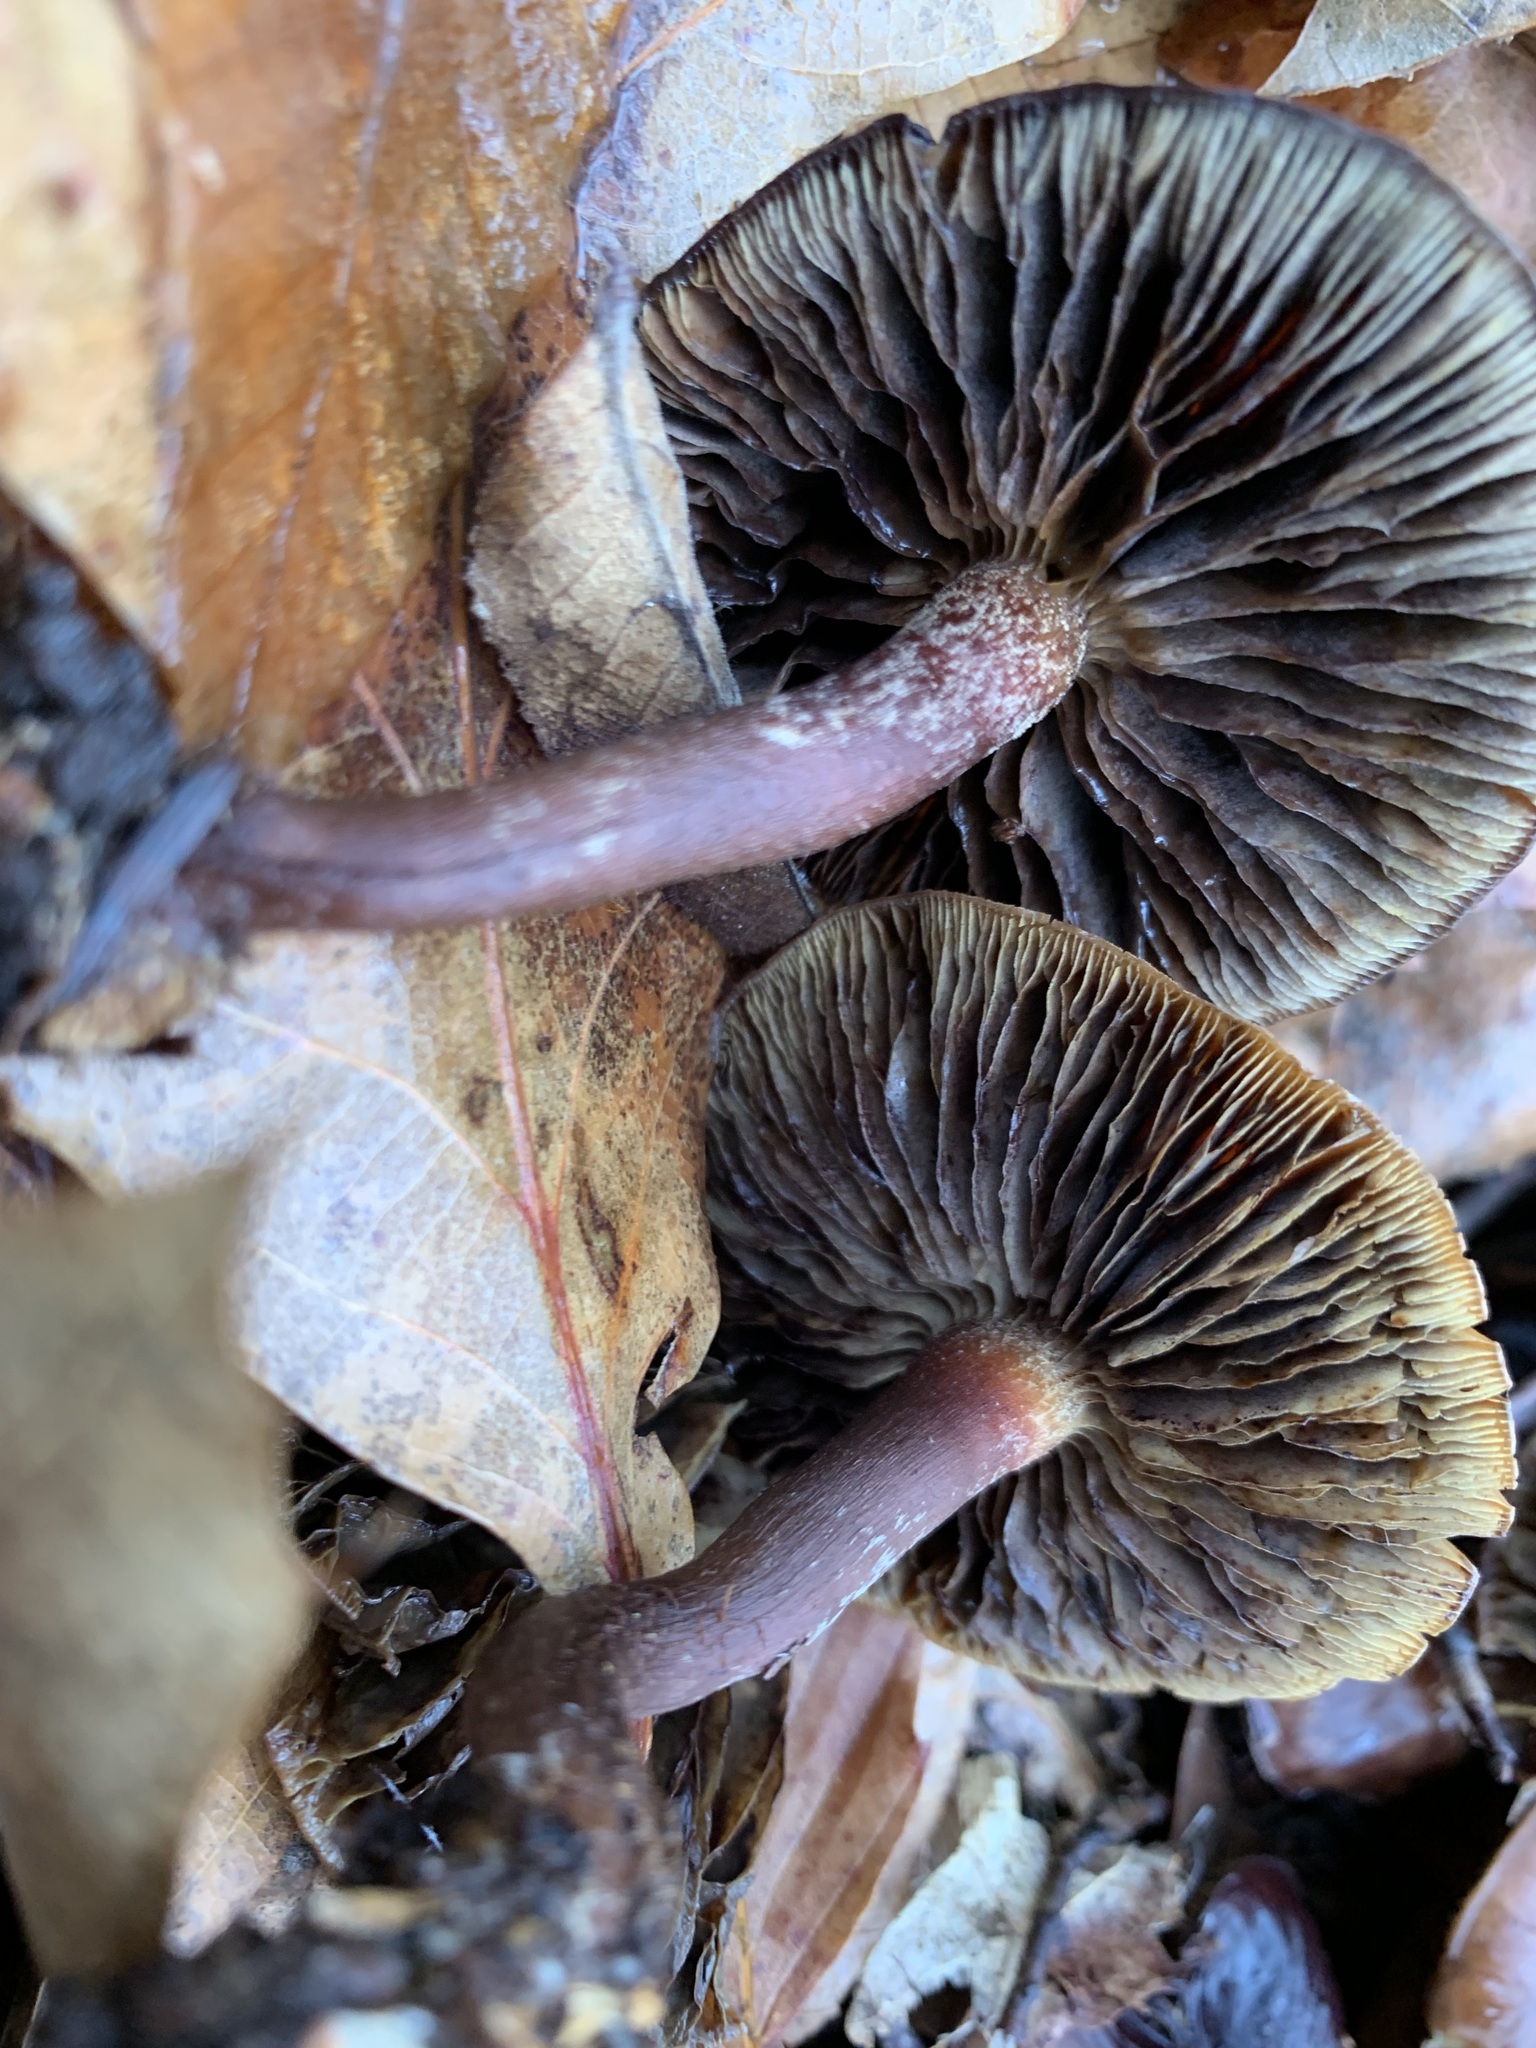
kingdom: Fungi
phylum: Basidiomycota
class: Agaricomycetes
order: Agaricales
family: Strophariaceae
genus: Hypholoma
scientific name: Hypholoma lateritium
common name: Brick caps
